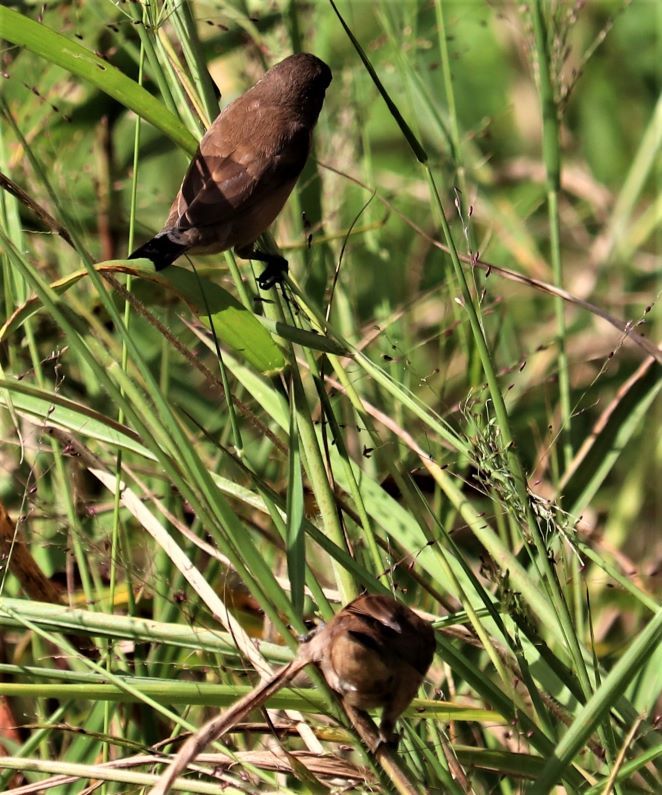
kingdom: Animalia
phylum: Chordata
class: Aves
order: Passeriformes
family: Estrildidae
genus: Lonchura
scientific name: Lonchura cucullata
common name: Bronze mannikin
